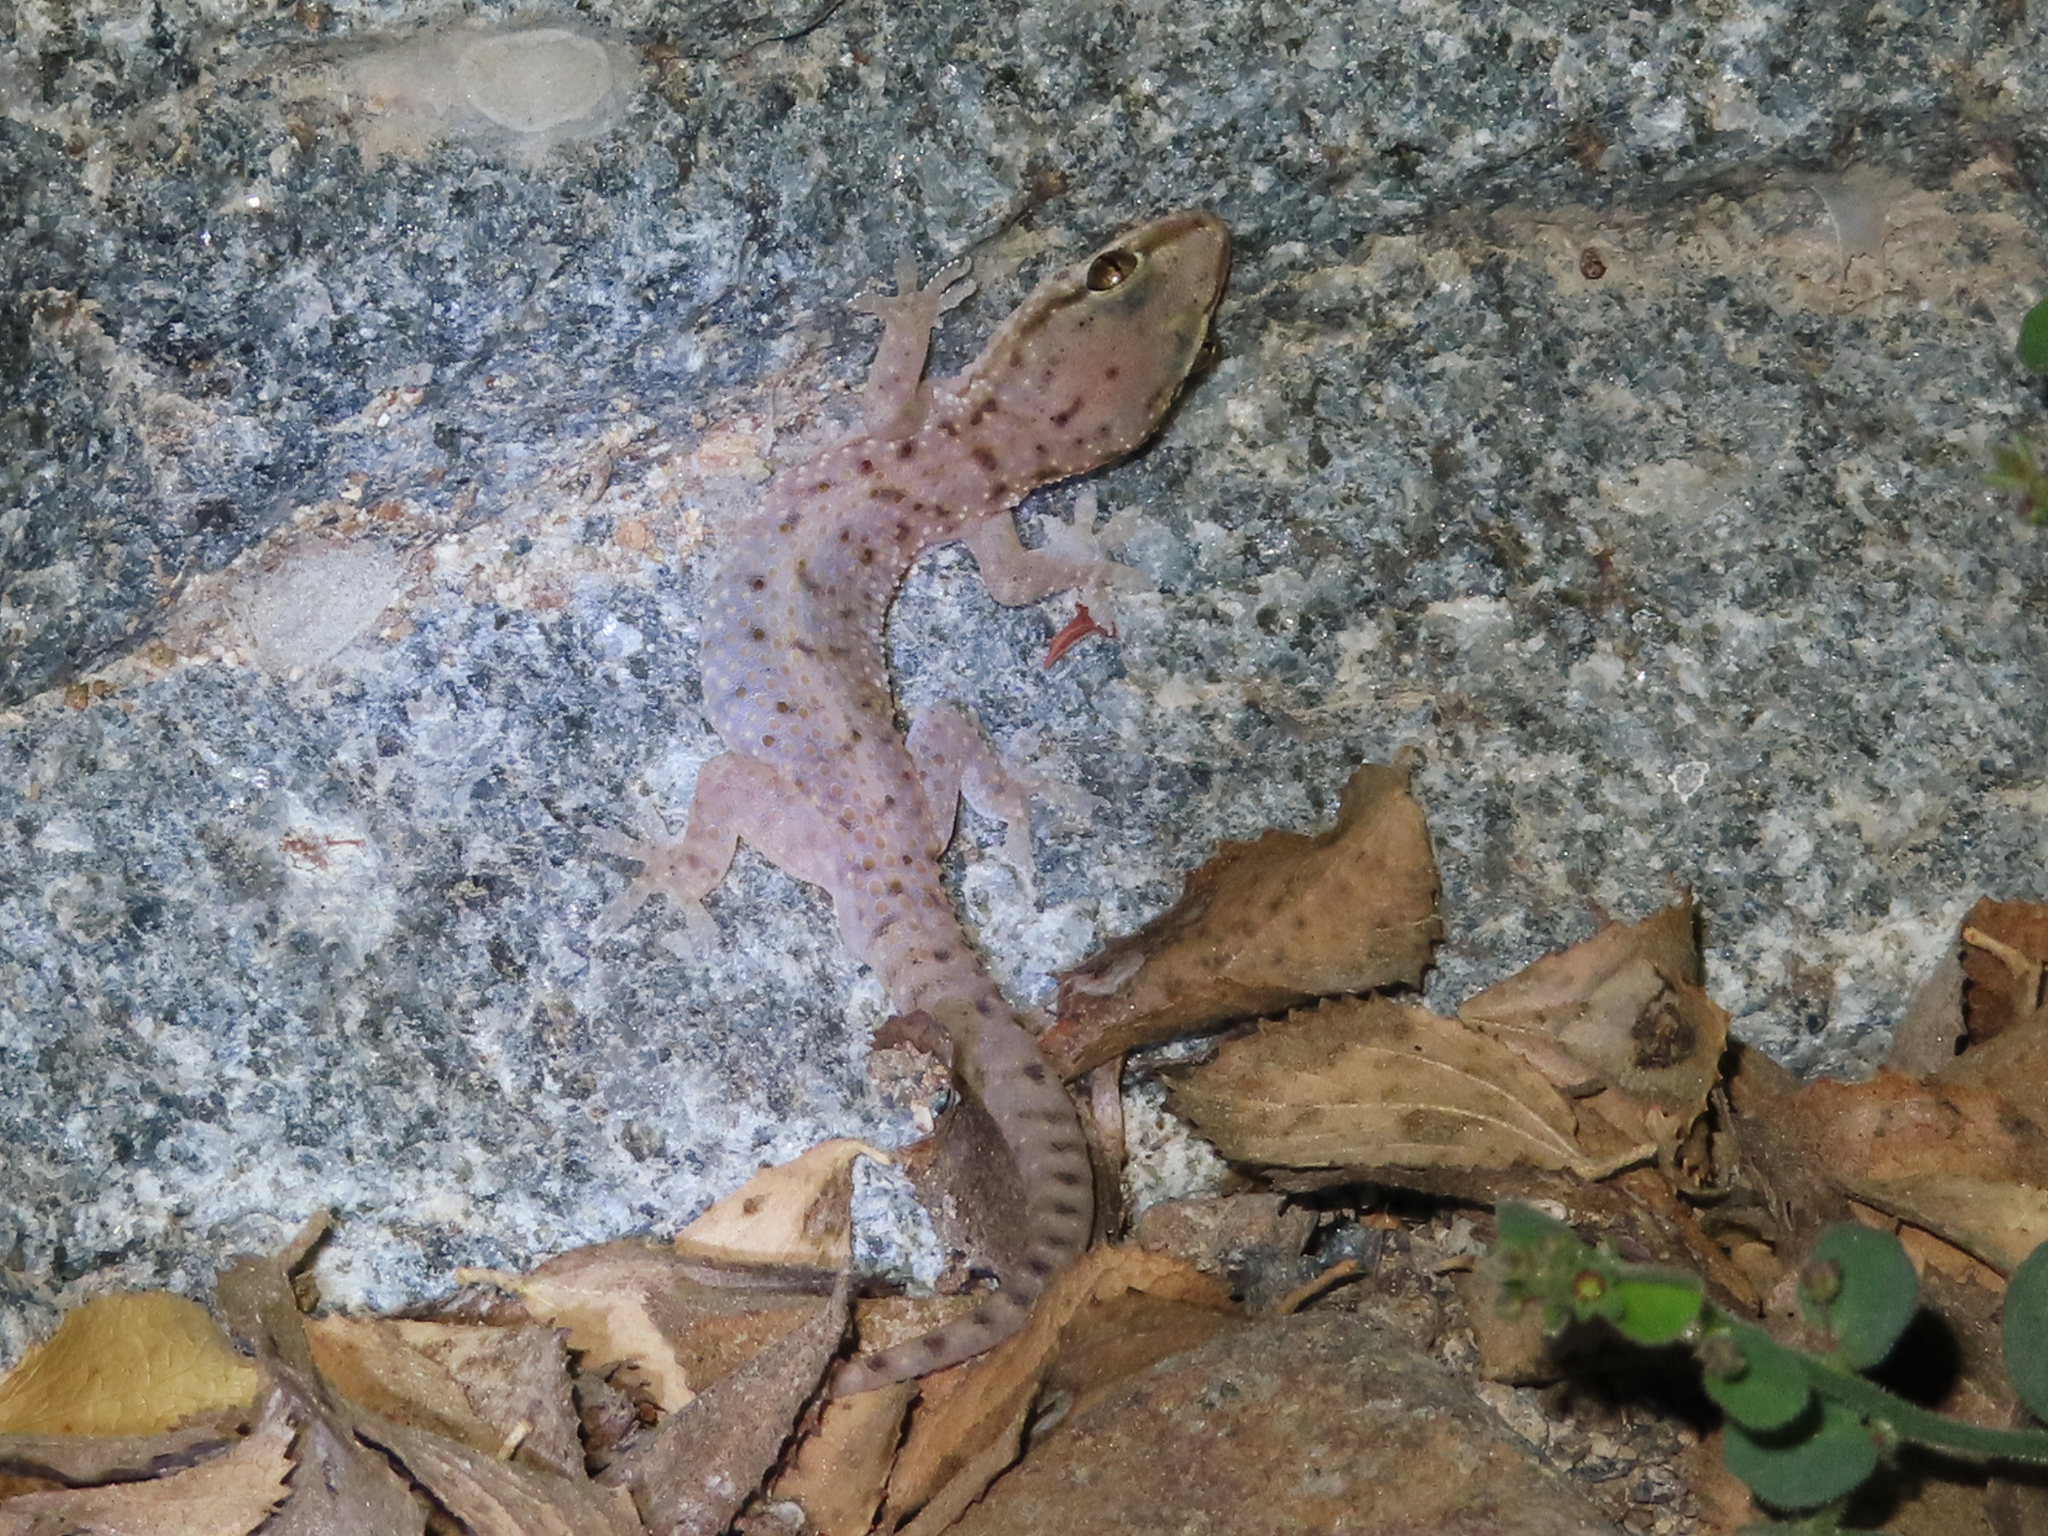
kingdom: Animalia
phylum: Chordata
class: Squamata
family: Gekkonidae
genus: Hemidactylus
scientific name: Hemidactylus robustus
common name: Heyden’s gecko
